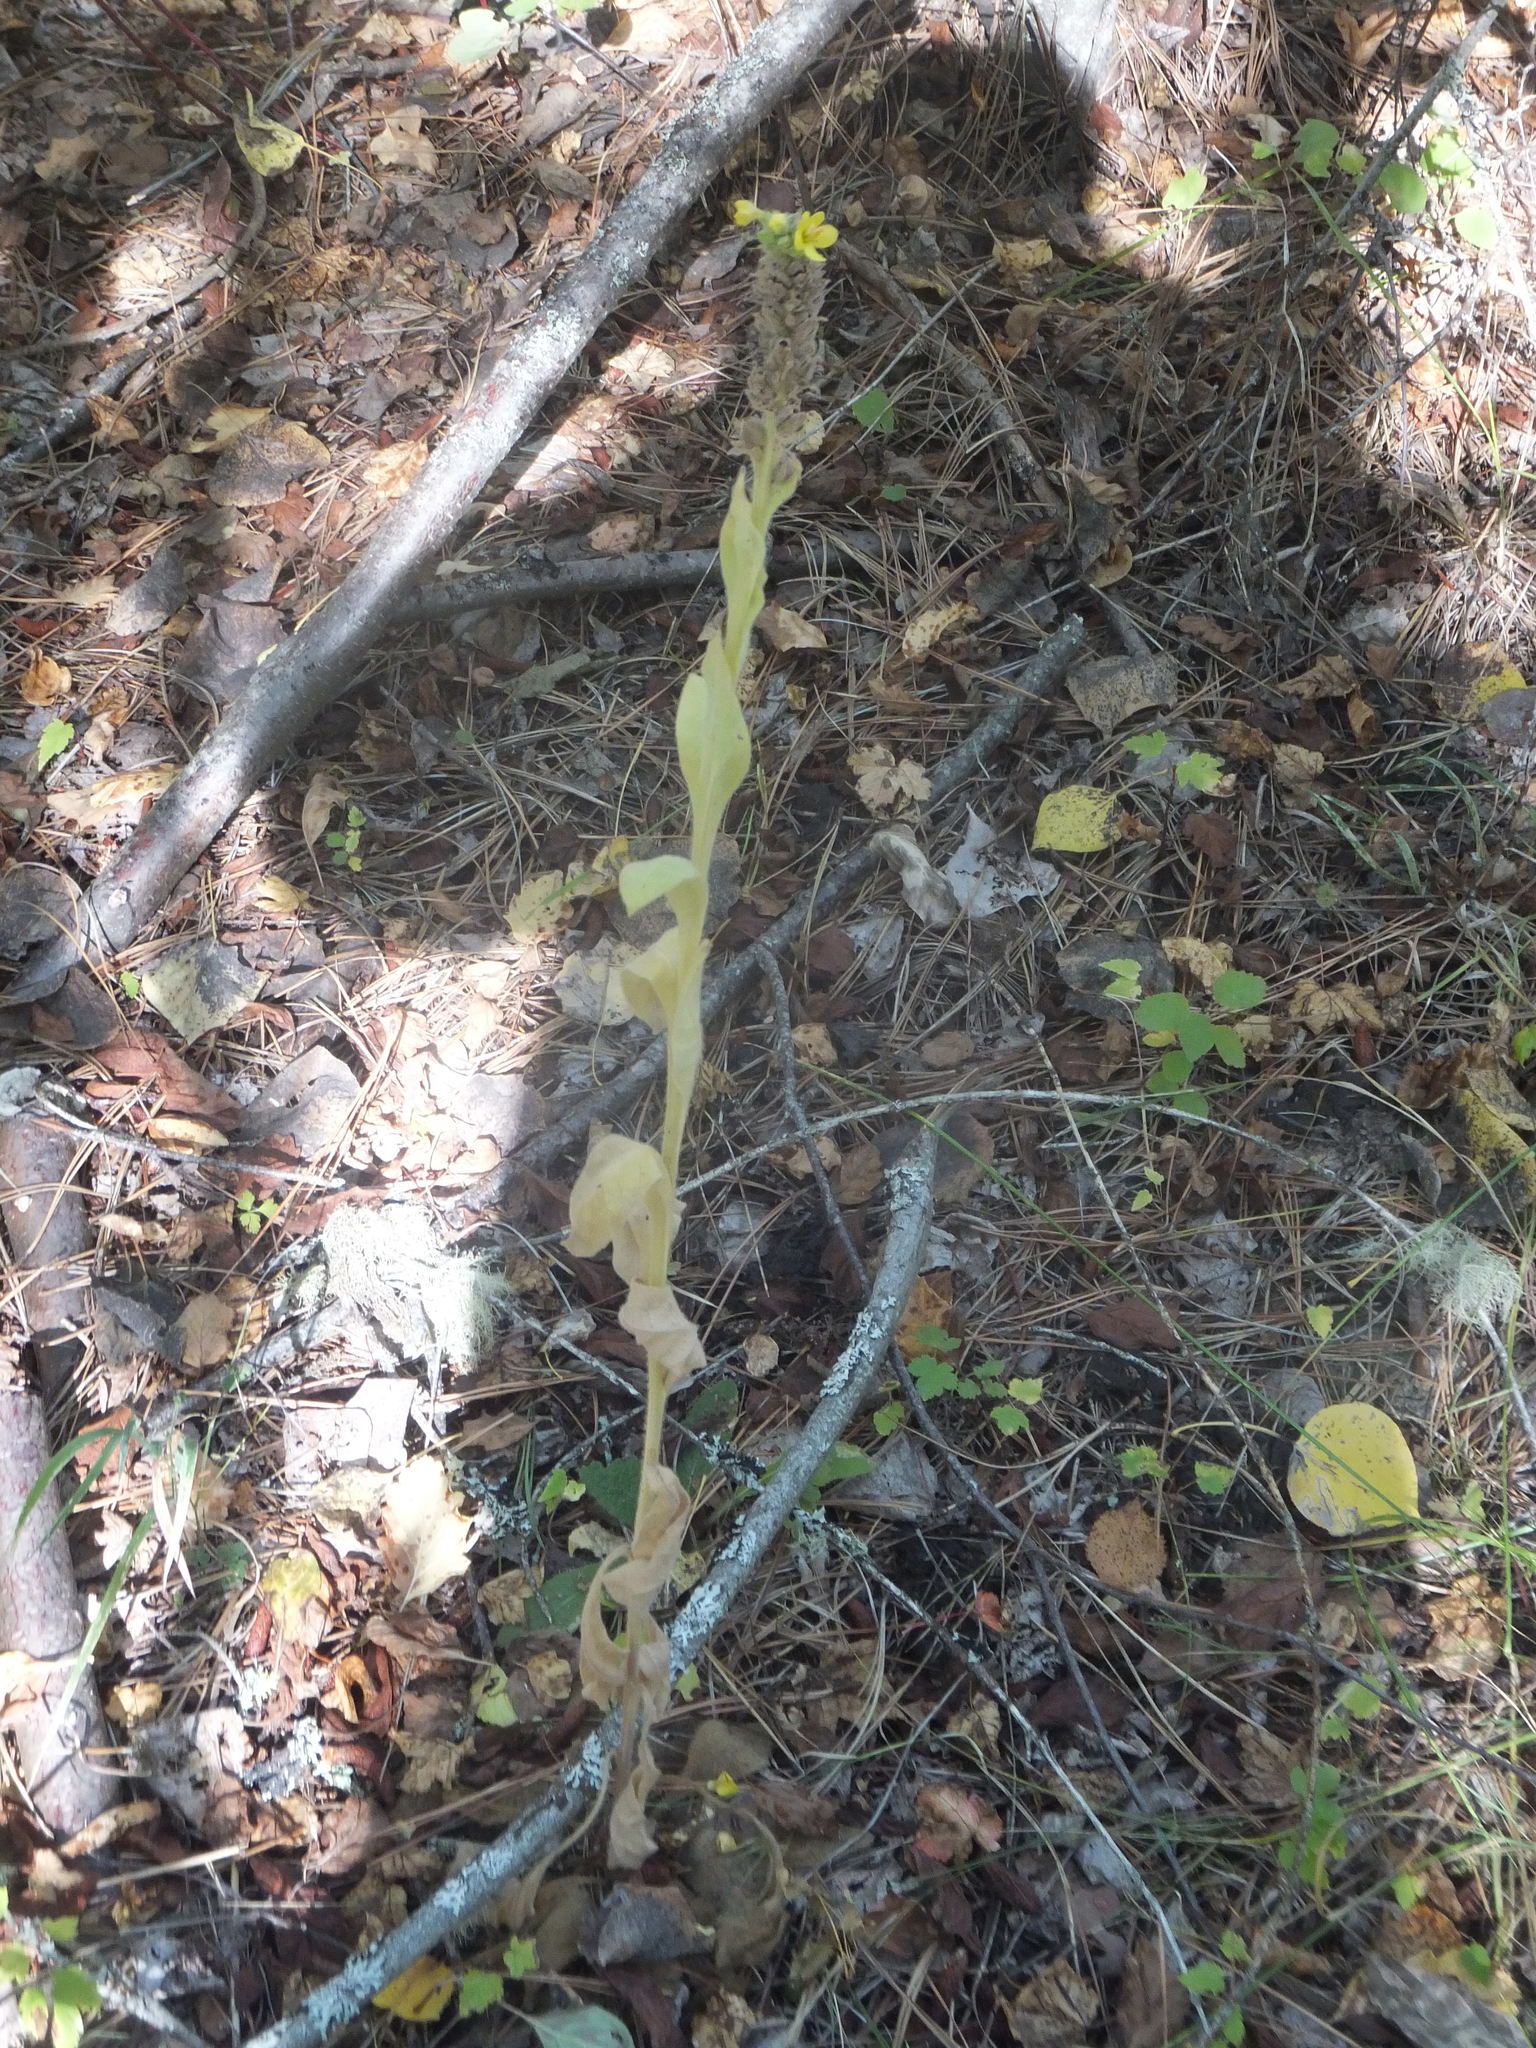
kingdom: Plantae
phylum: Tracheophyta
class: Magnoliopsida
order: Lamiales
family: Scrophulariaceae
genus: Verbascum
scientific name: Verbascum thapsus
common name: Common mullein
